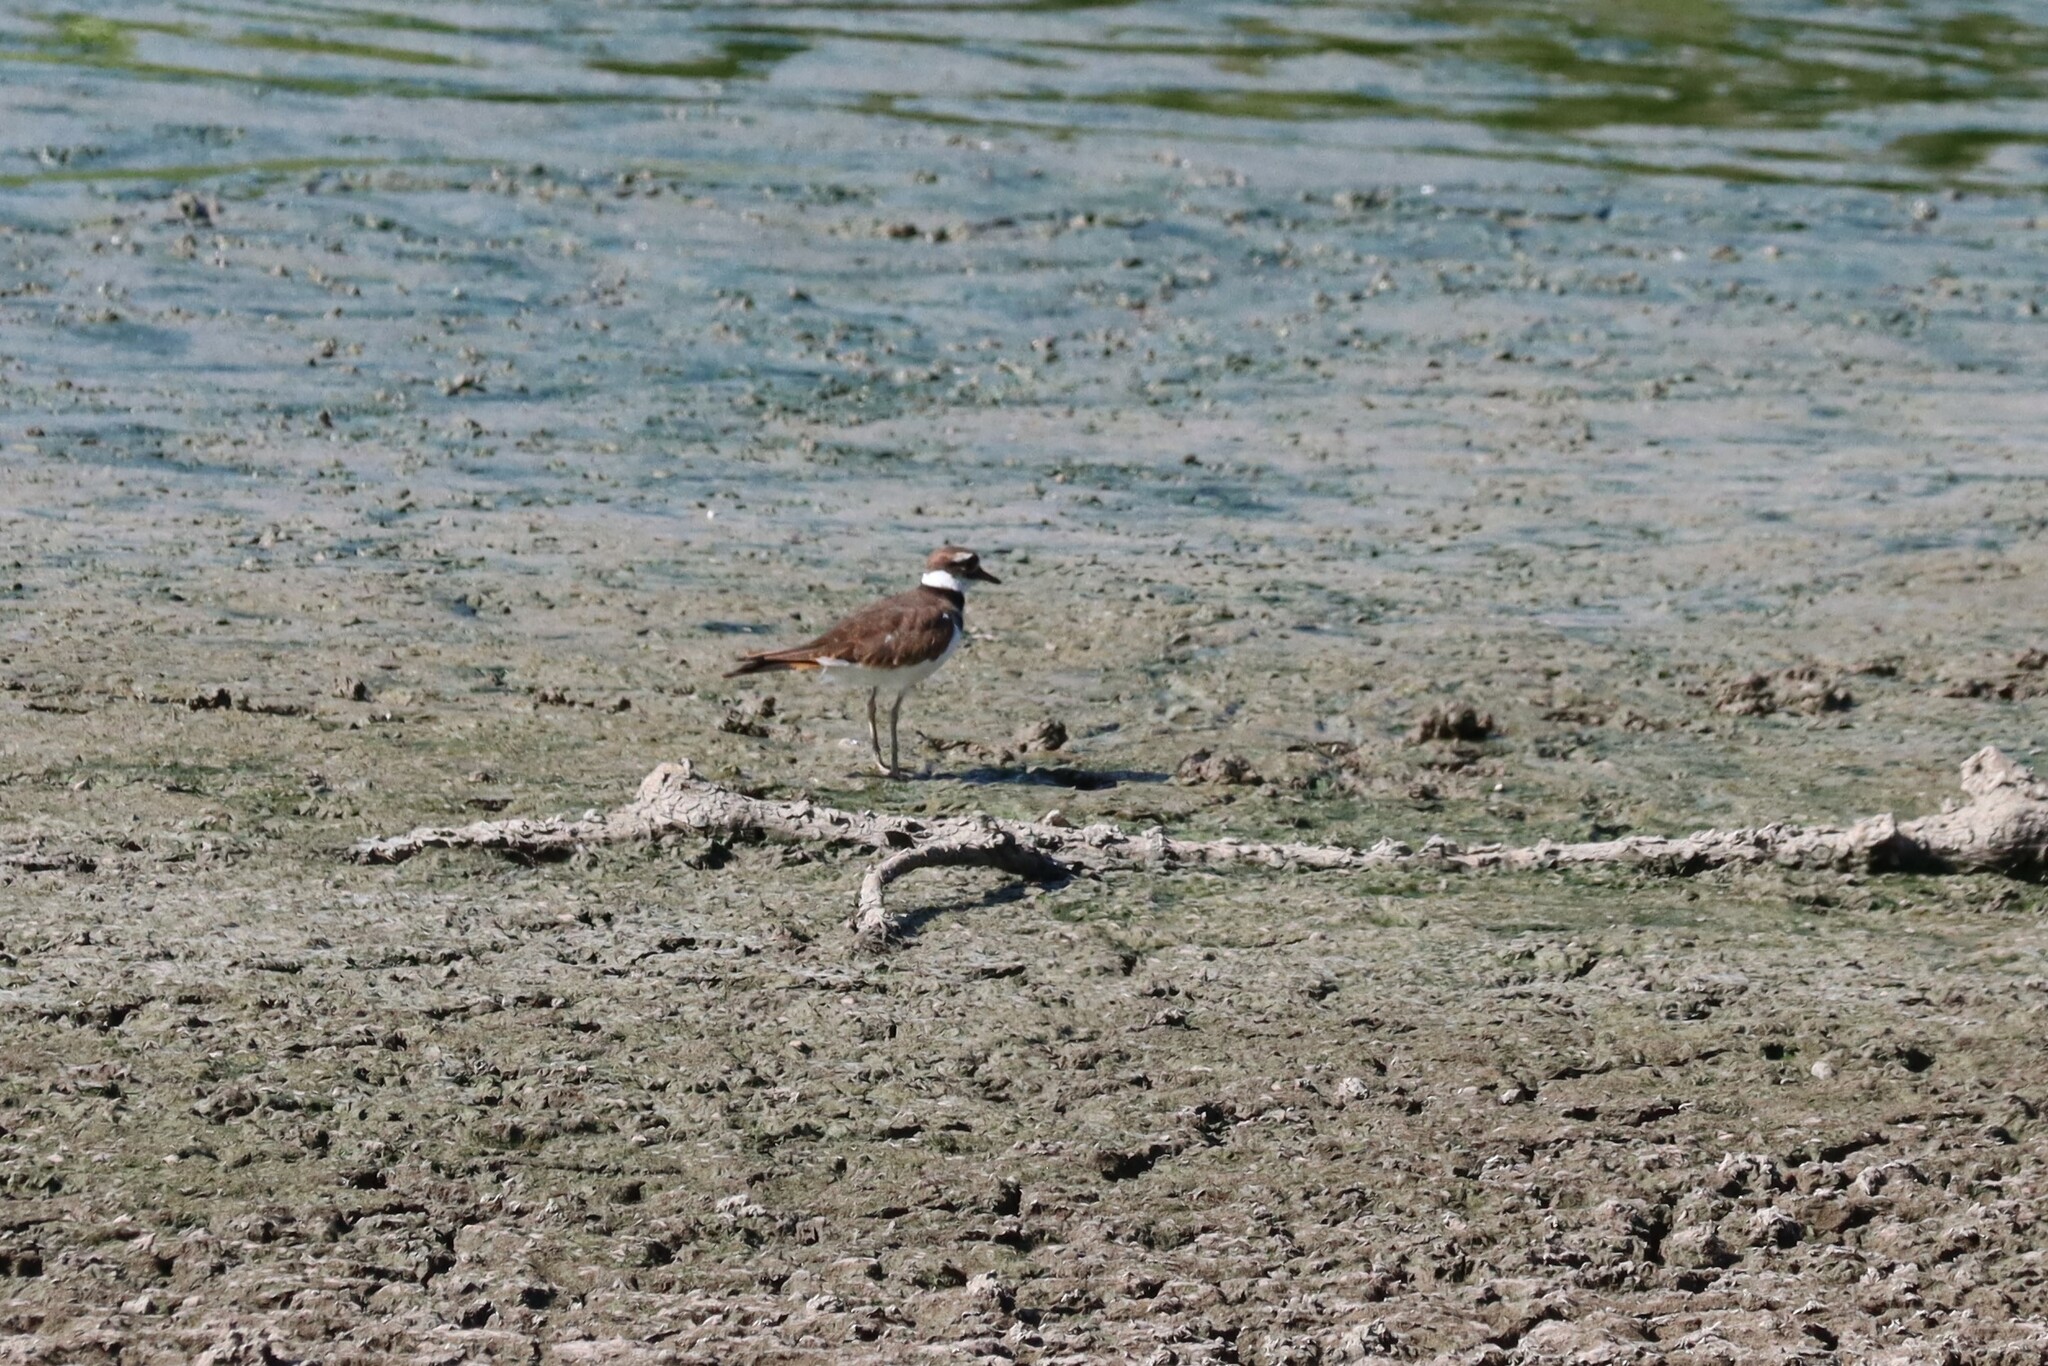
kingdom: Animalia
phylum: Chordata
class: Aves
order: Charadriiformes
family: Charadriidae
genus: Charadrius
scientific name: Charadrius vociferus
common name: Killdeer
